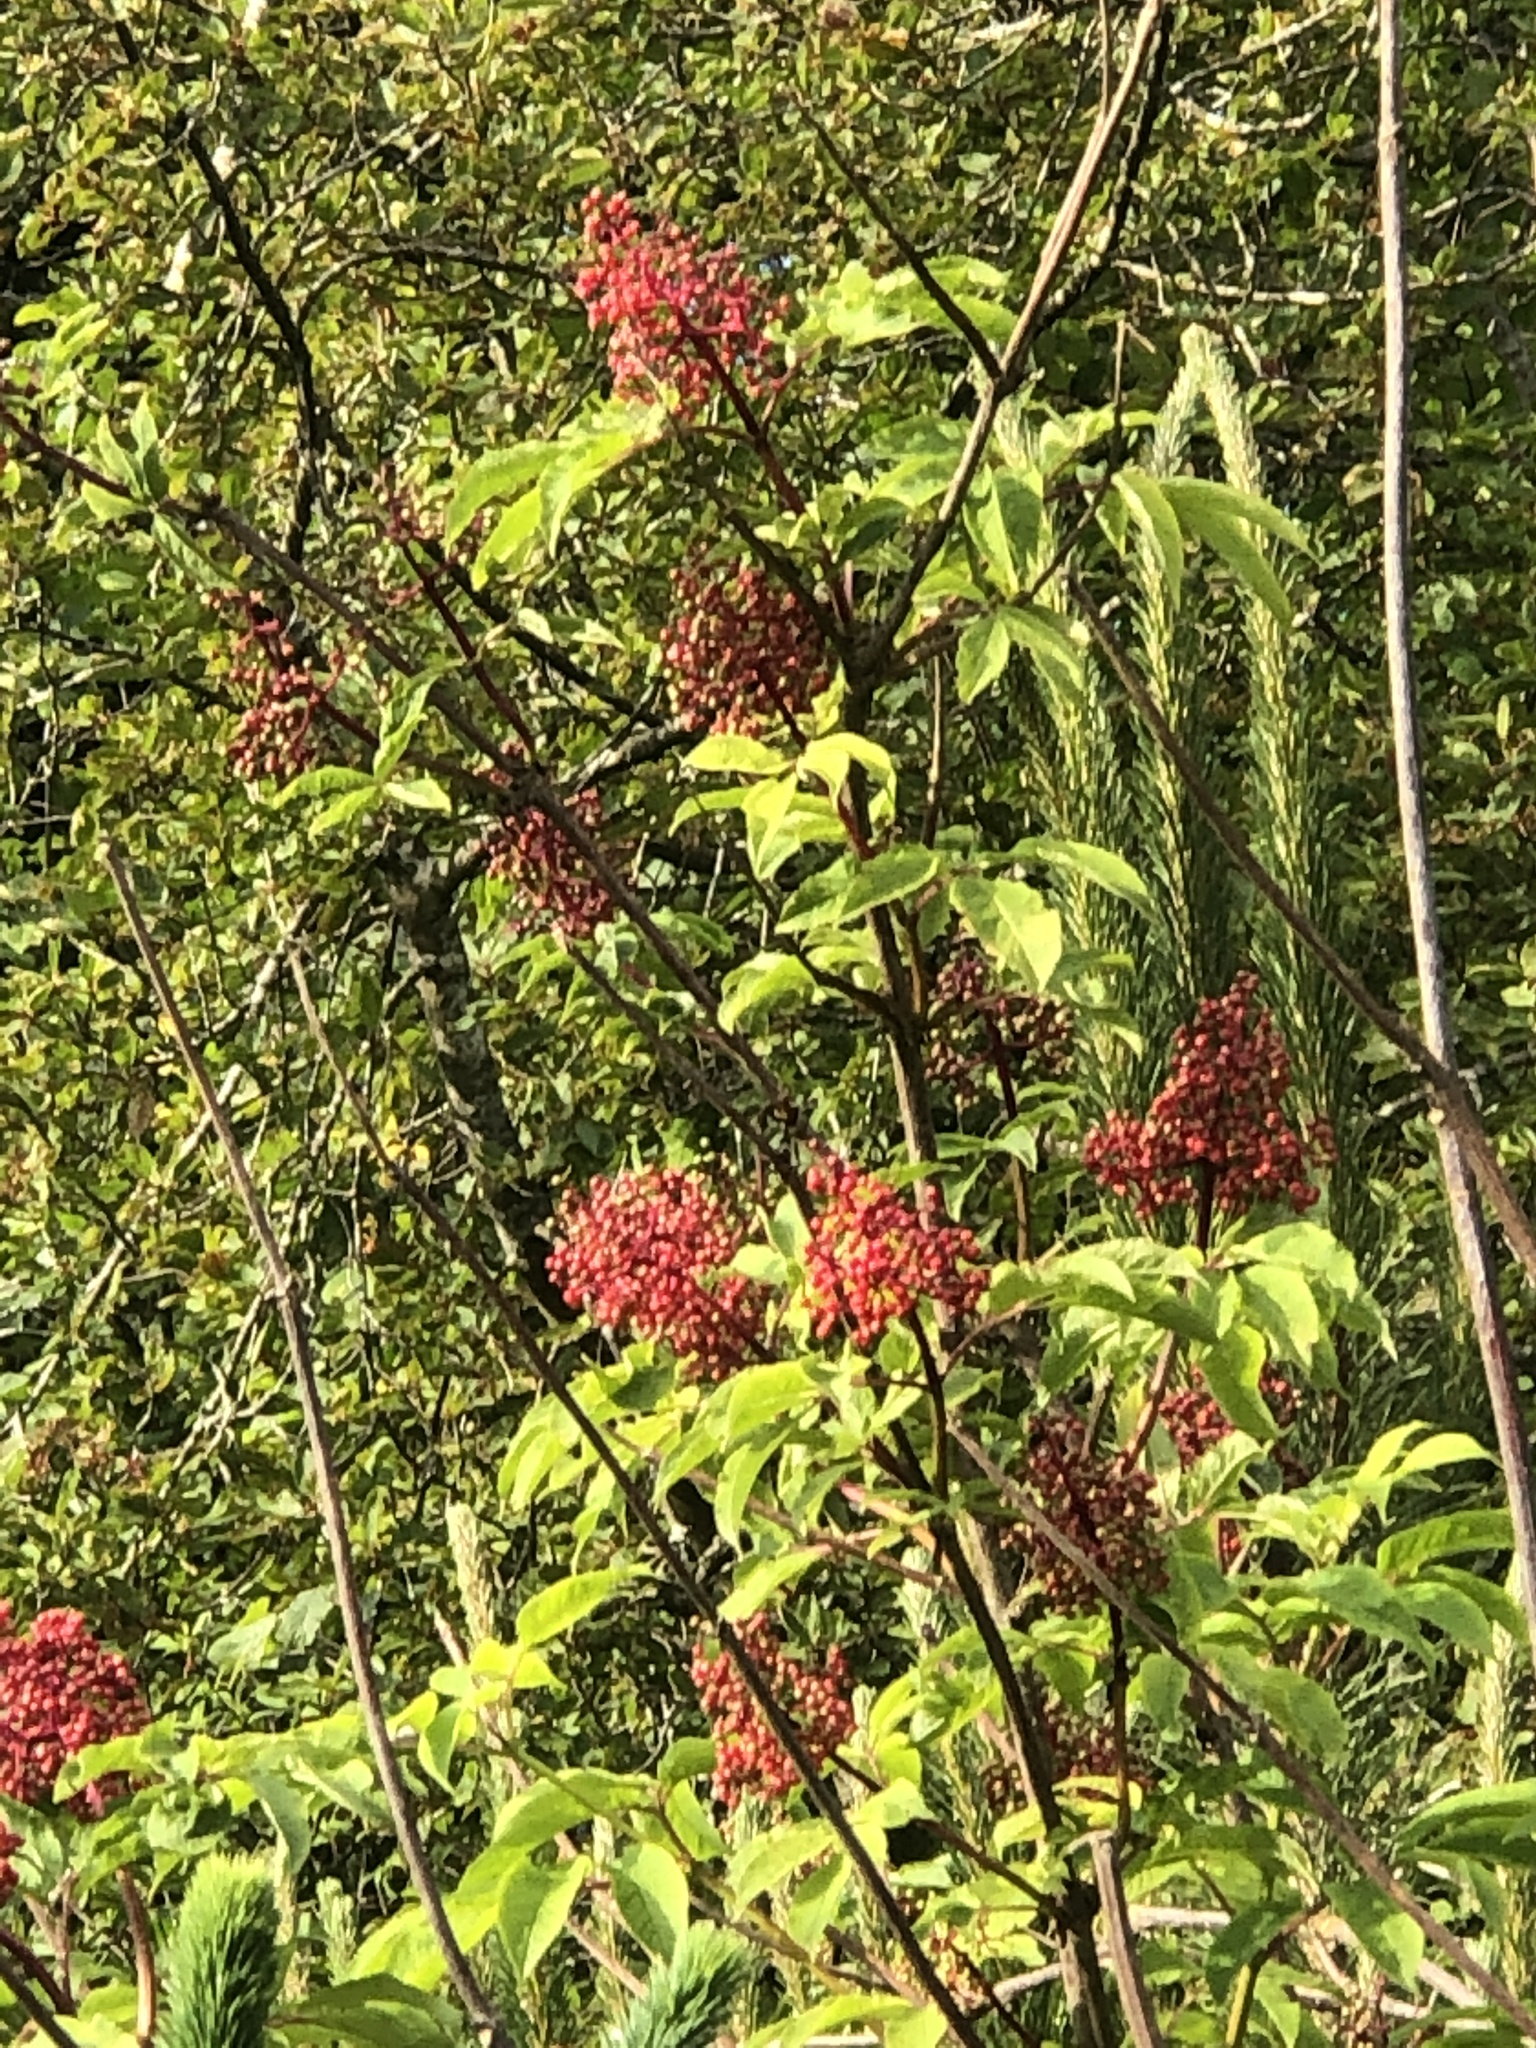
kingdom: Plantae
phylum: Tracheophyta
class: Magnoliopsida
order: Dipsacales
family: Viburnaceae
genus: Sambucus
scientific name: Sambucus racemosa
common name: Red-berried elder
